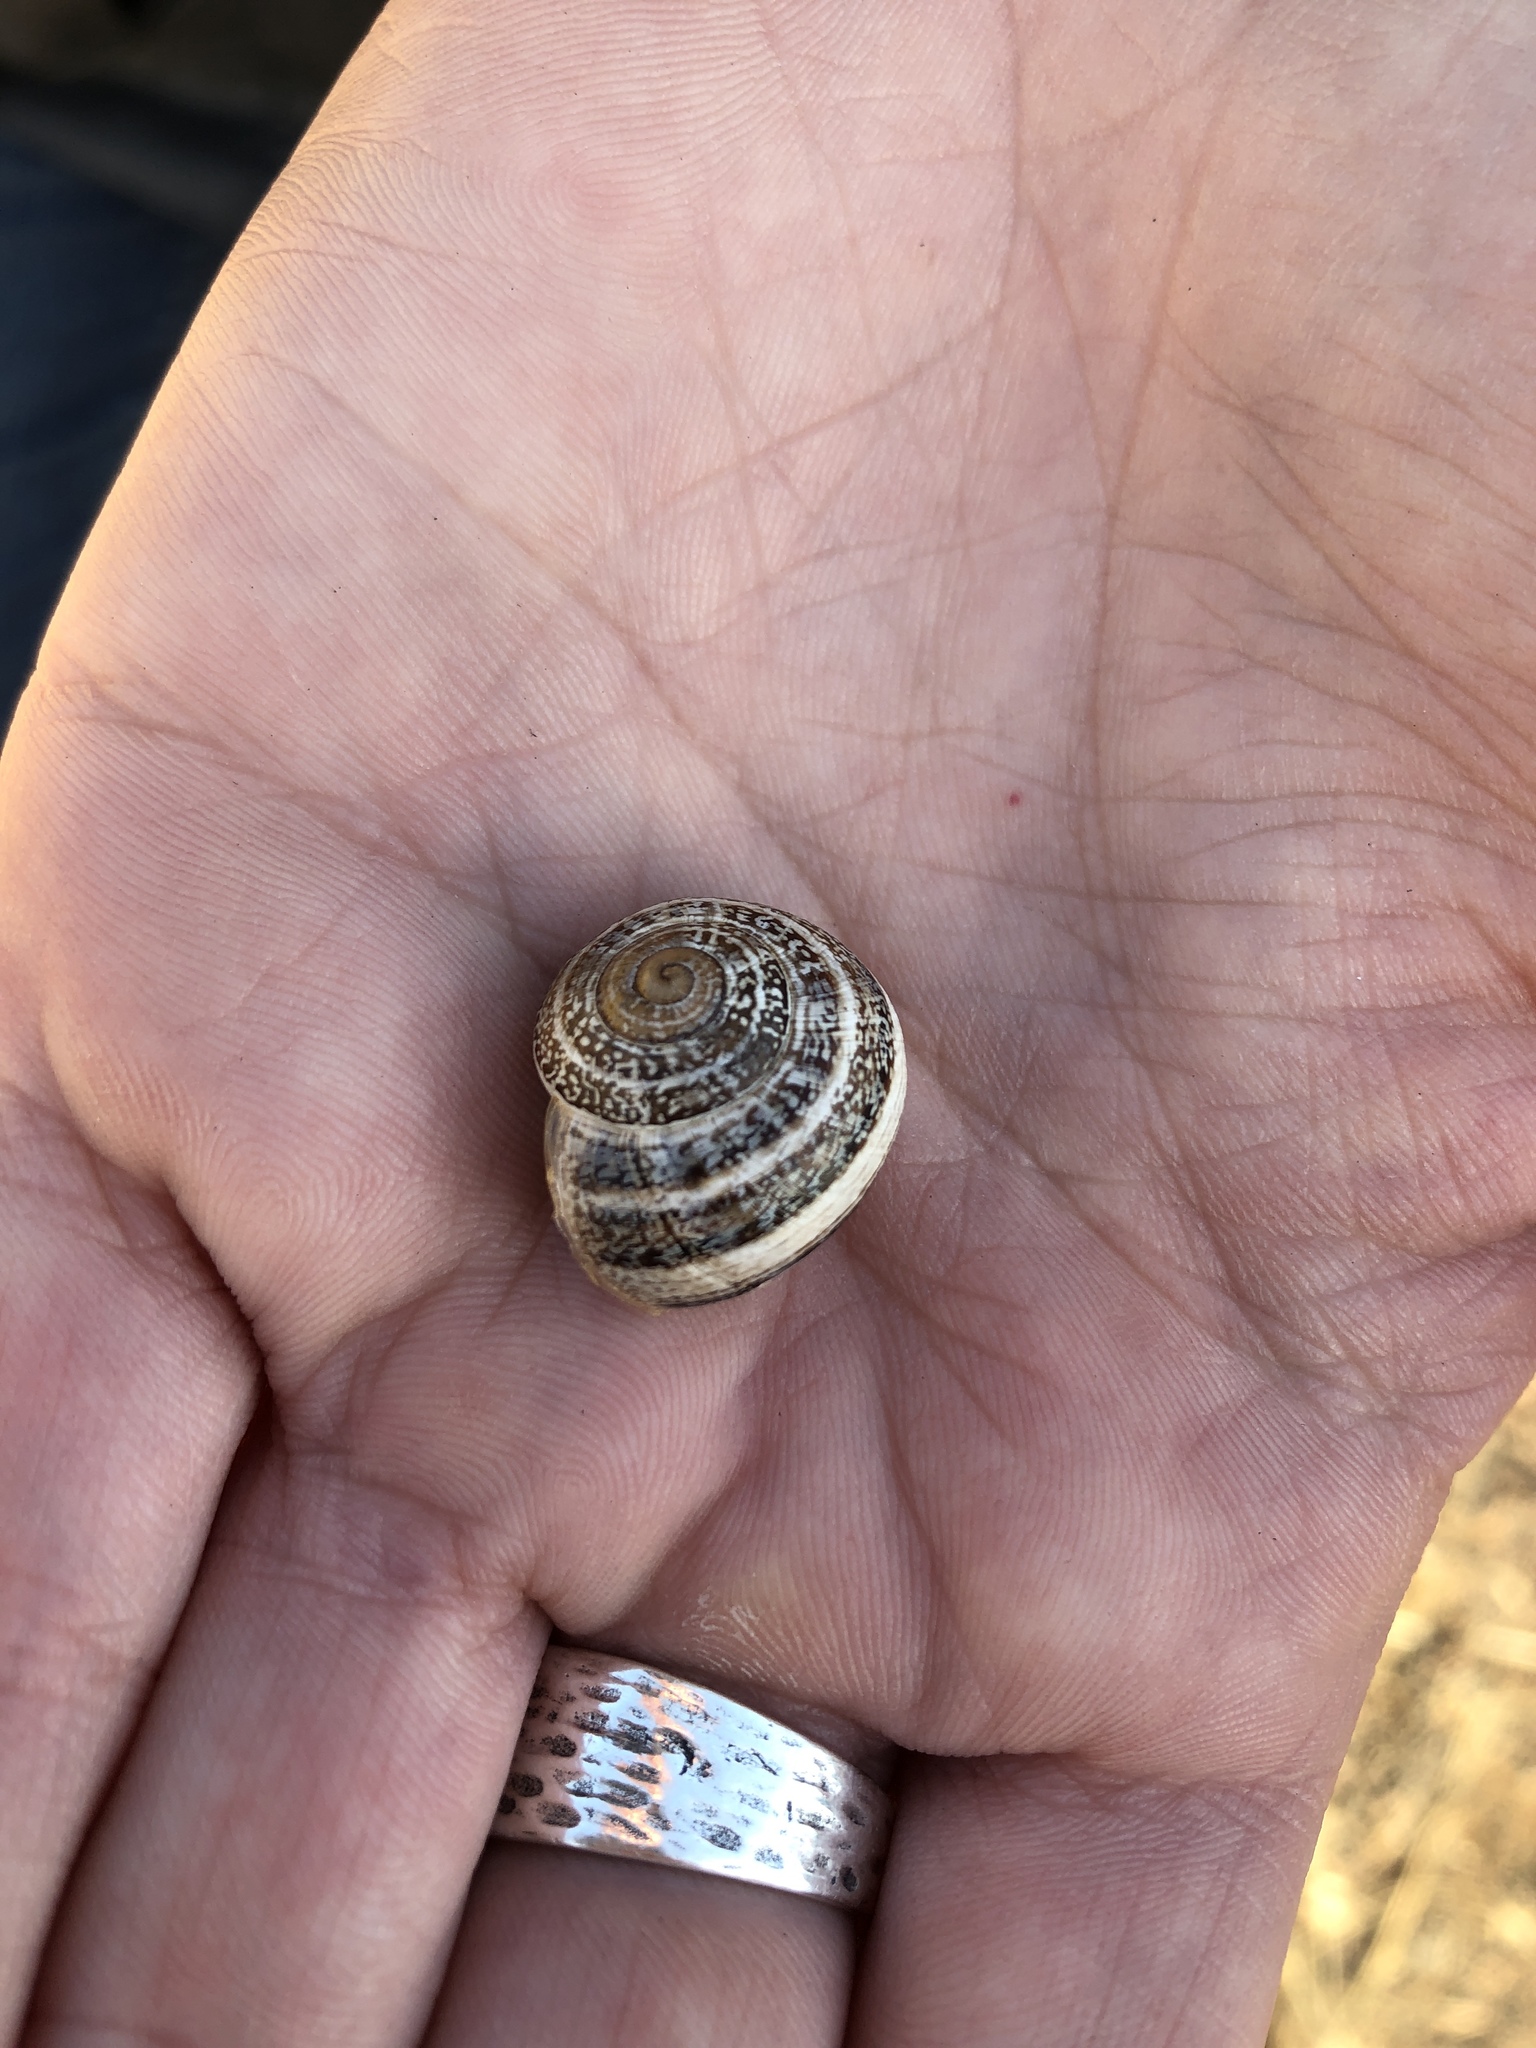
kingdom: Animalia
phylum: Mollusca
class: Gastropoda
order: Stylommatophora
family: Helicidae
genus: Otala
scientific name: Otala lactea
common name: Milk snail
